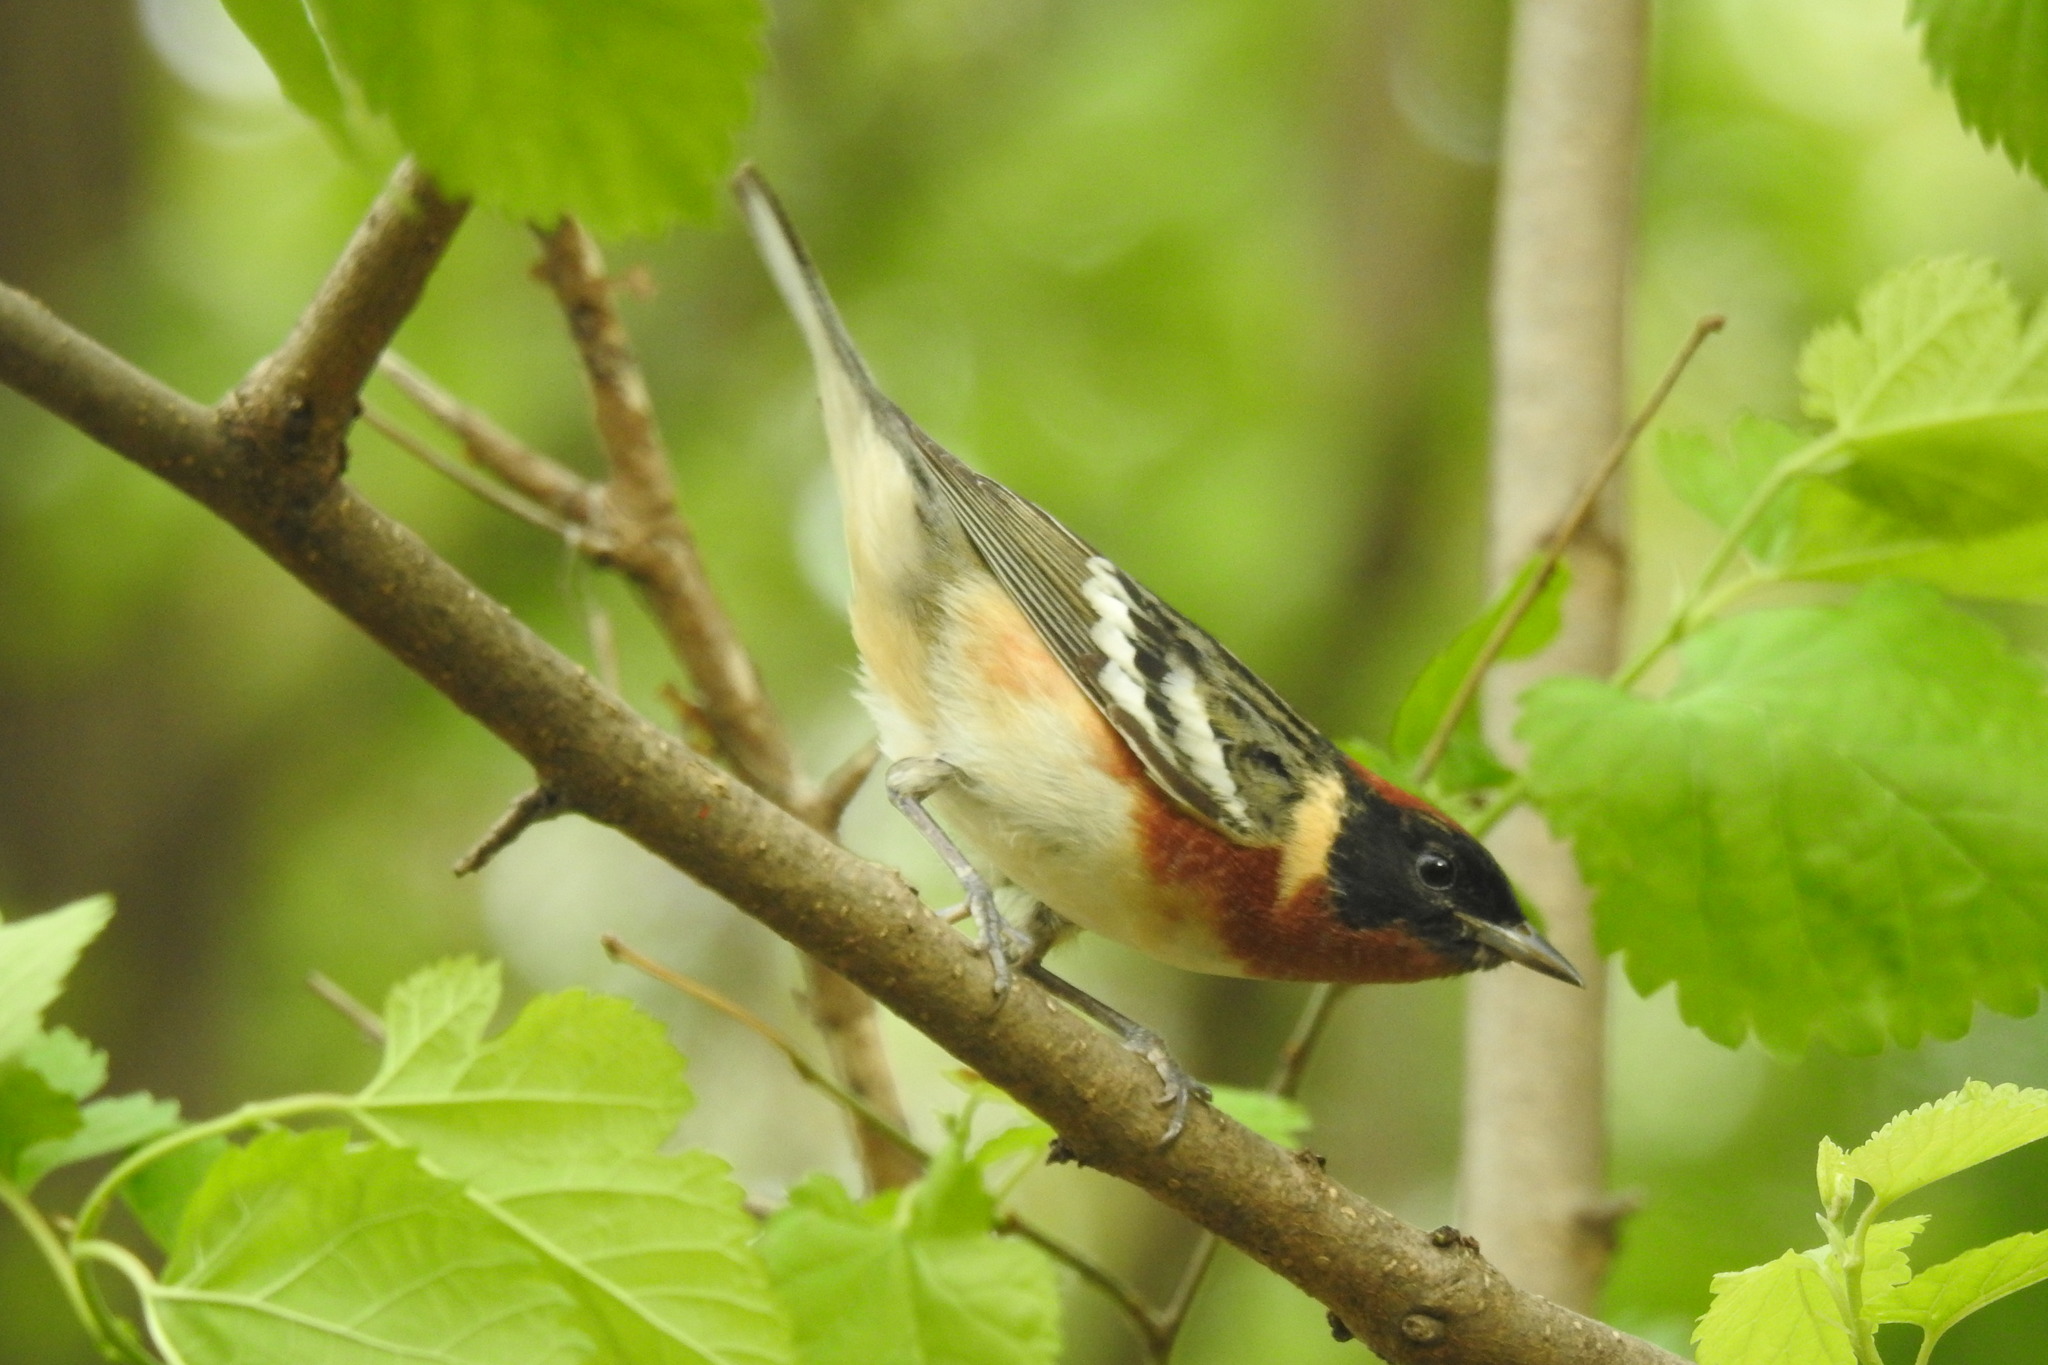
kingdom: Animalia
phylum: Chordata
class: Aves
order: Passeriformes
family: Parulidae
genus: Setophaga
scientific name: Setophaga castanea
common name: Bay-breasted warbler
